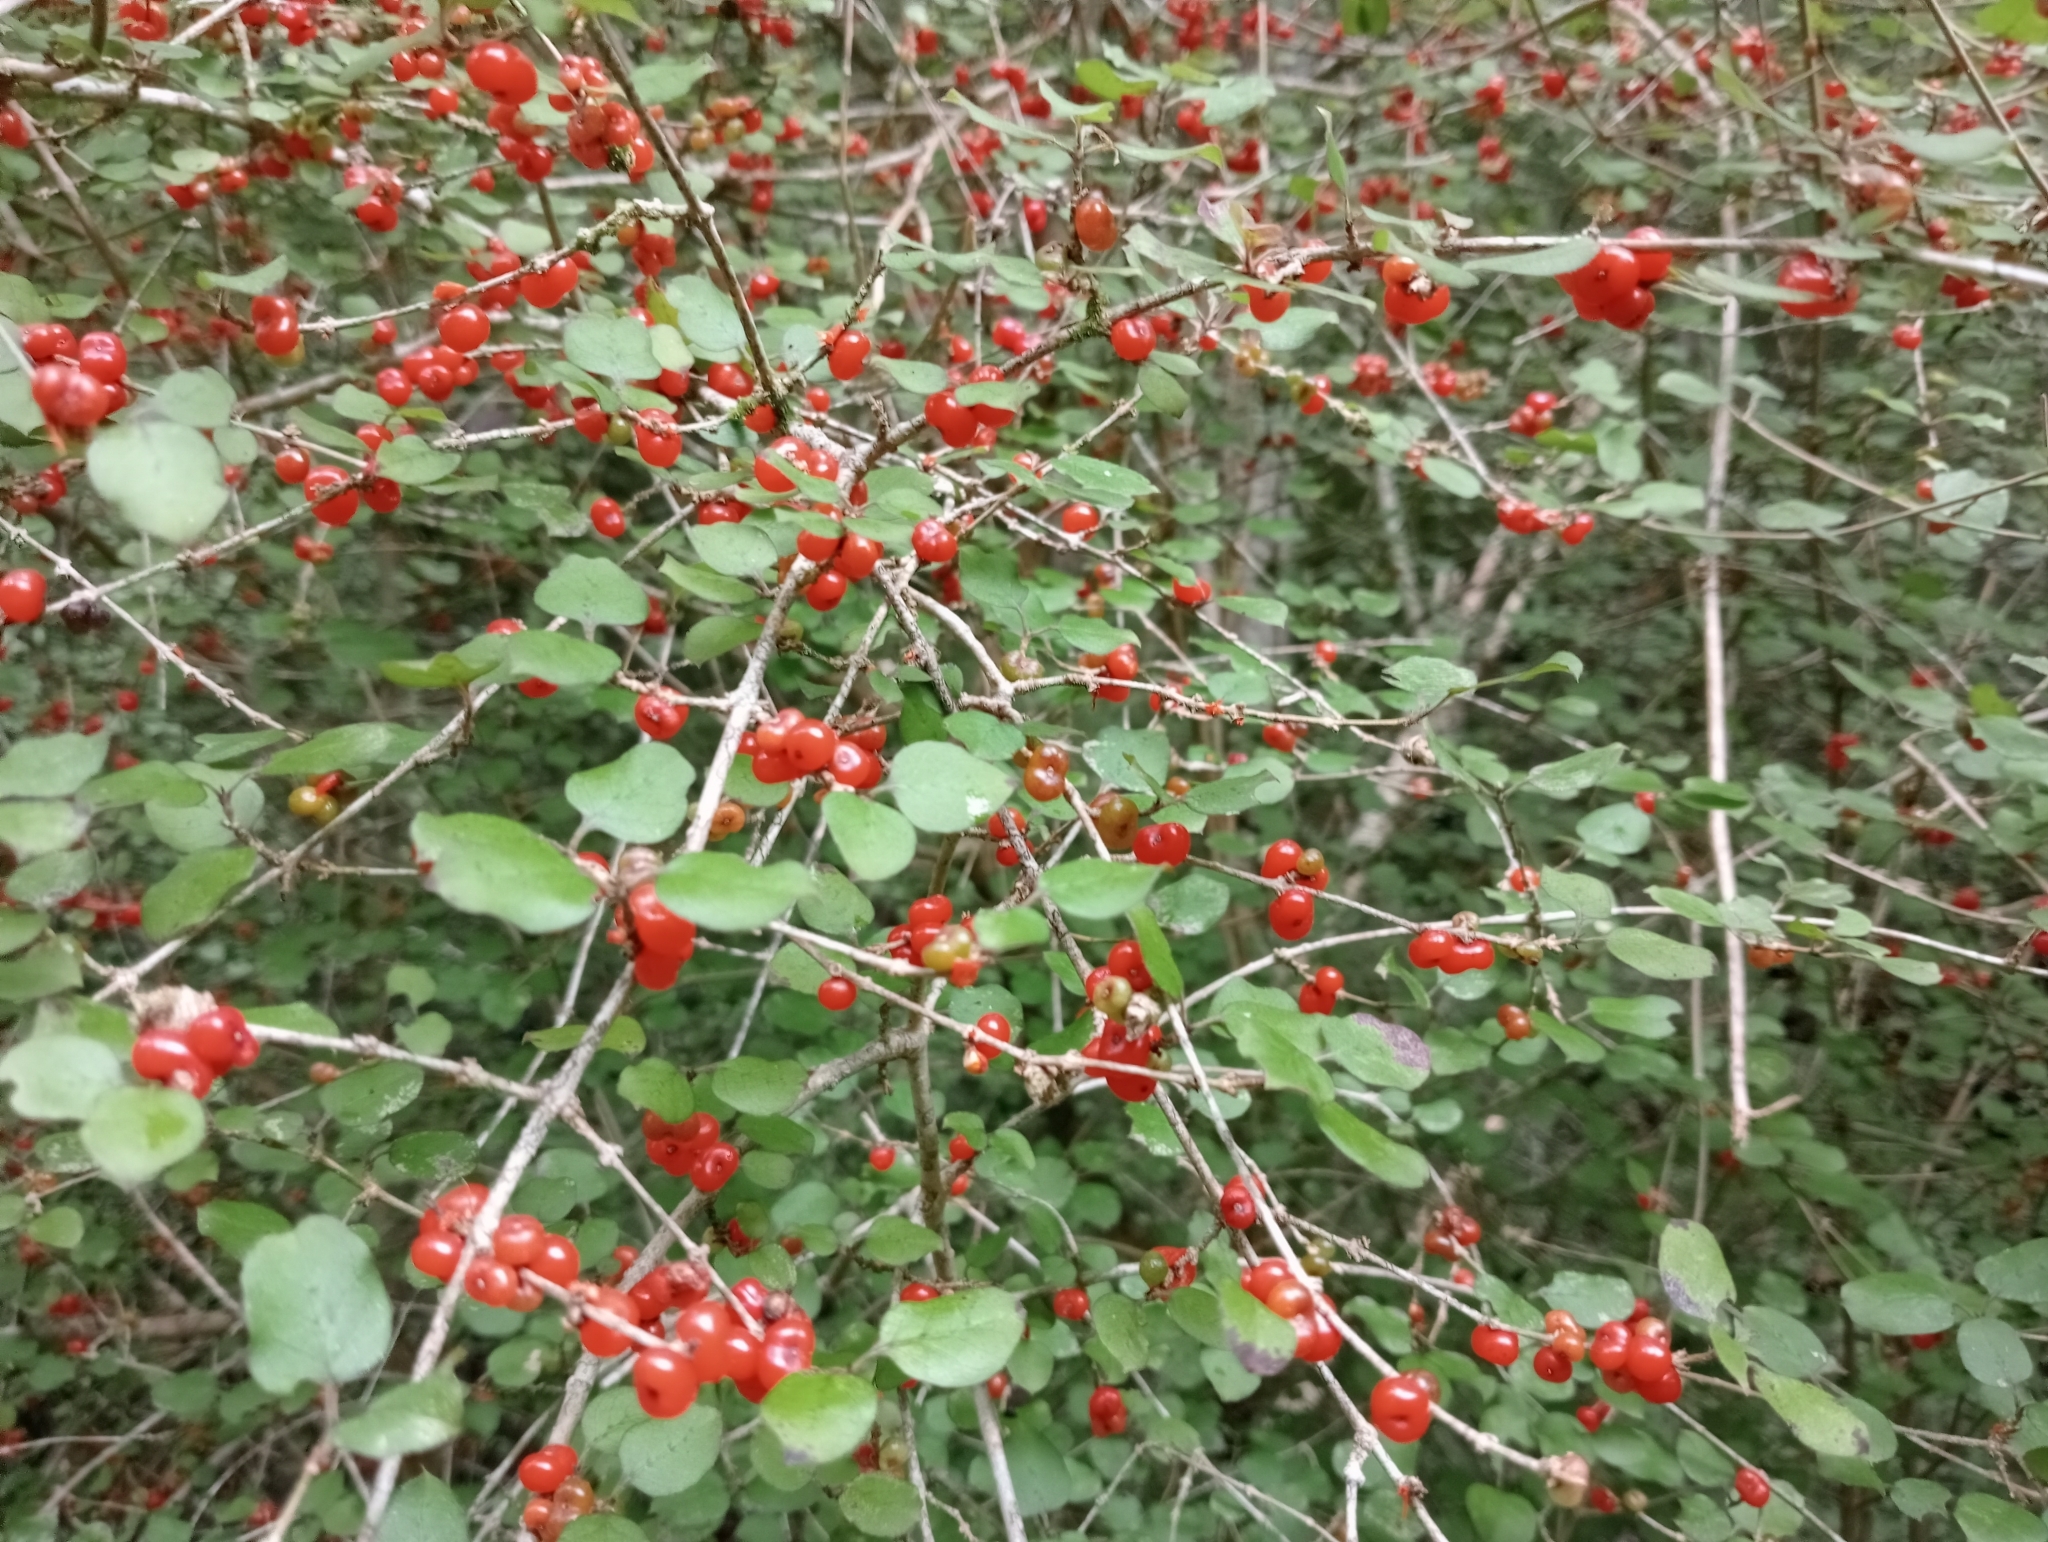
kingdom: Plantae
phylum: Tracheophyta
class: Magnoliopsida
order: Gentianales
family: Rubiaceae
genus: Coprosma
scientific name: Coprosma rotundifolia
